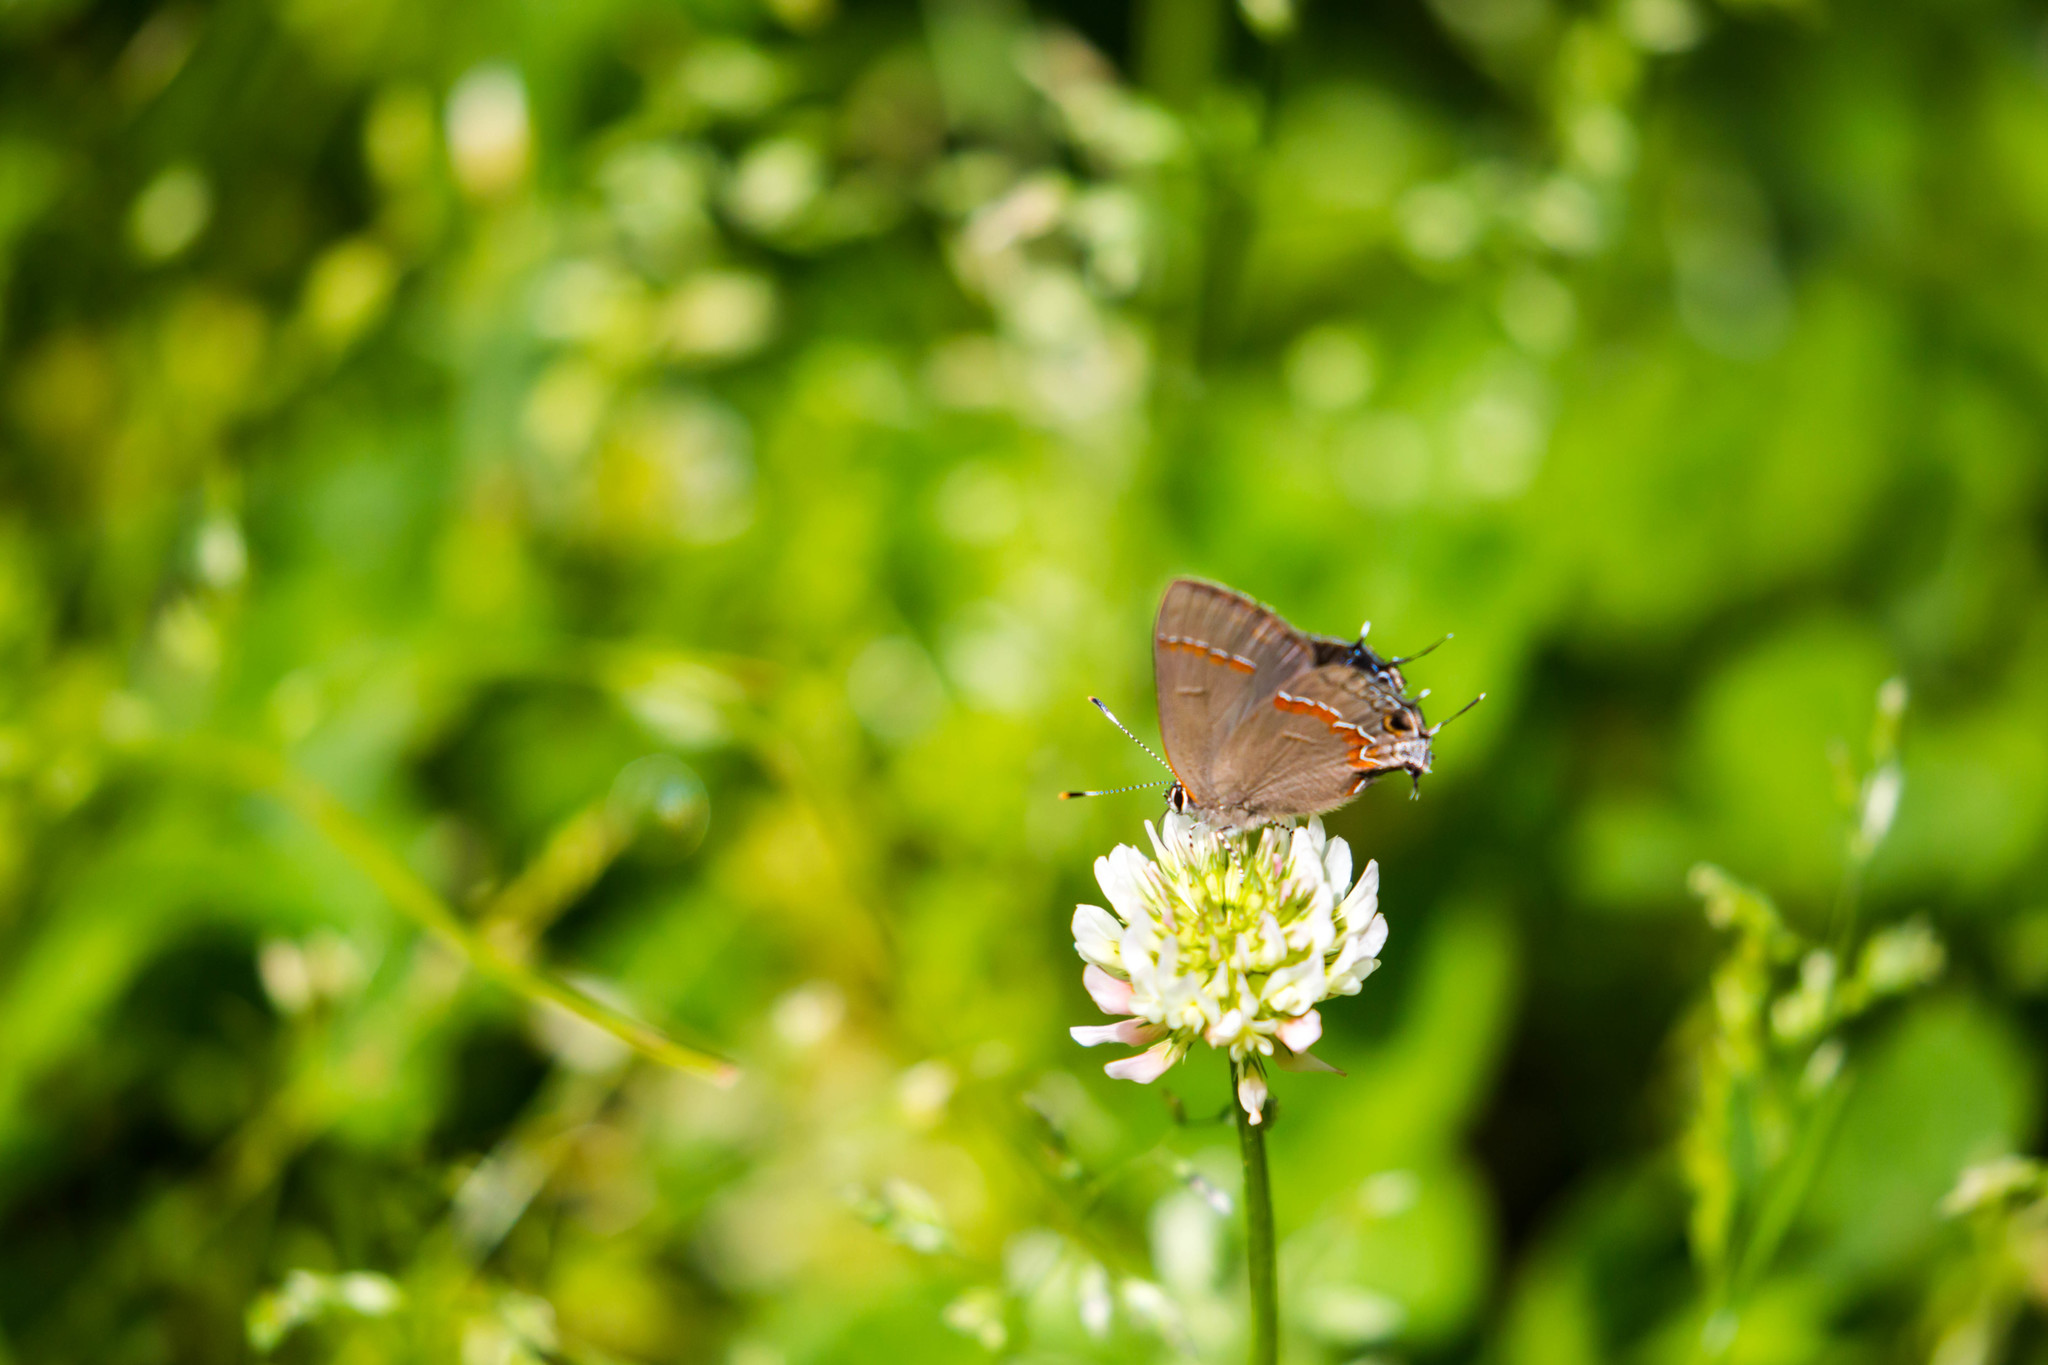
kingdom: Animalia
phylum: Arthropoda
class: Insecta
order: Lepidoptera
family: Lycaenidae
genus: Calycopis
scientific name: Calycopis cecrops
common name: Red-banded hairstreak
